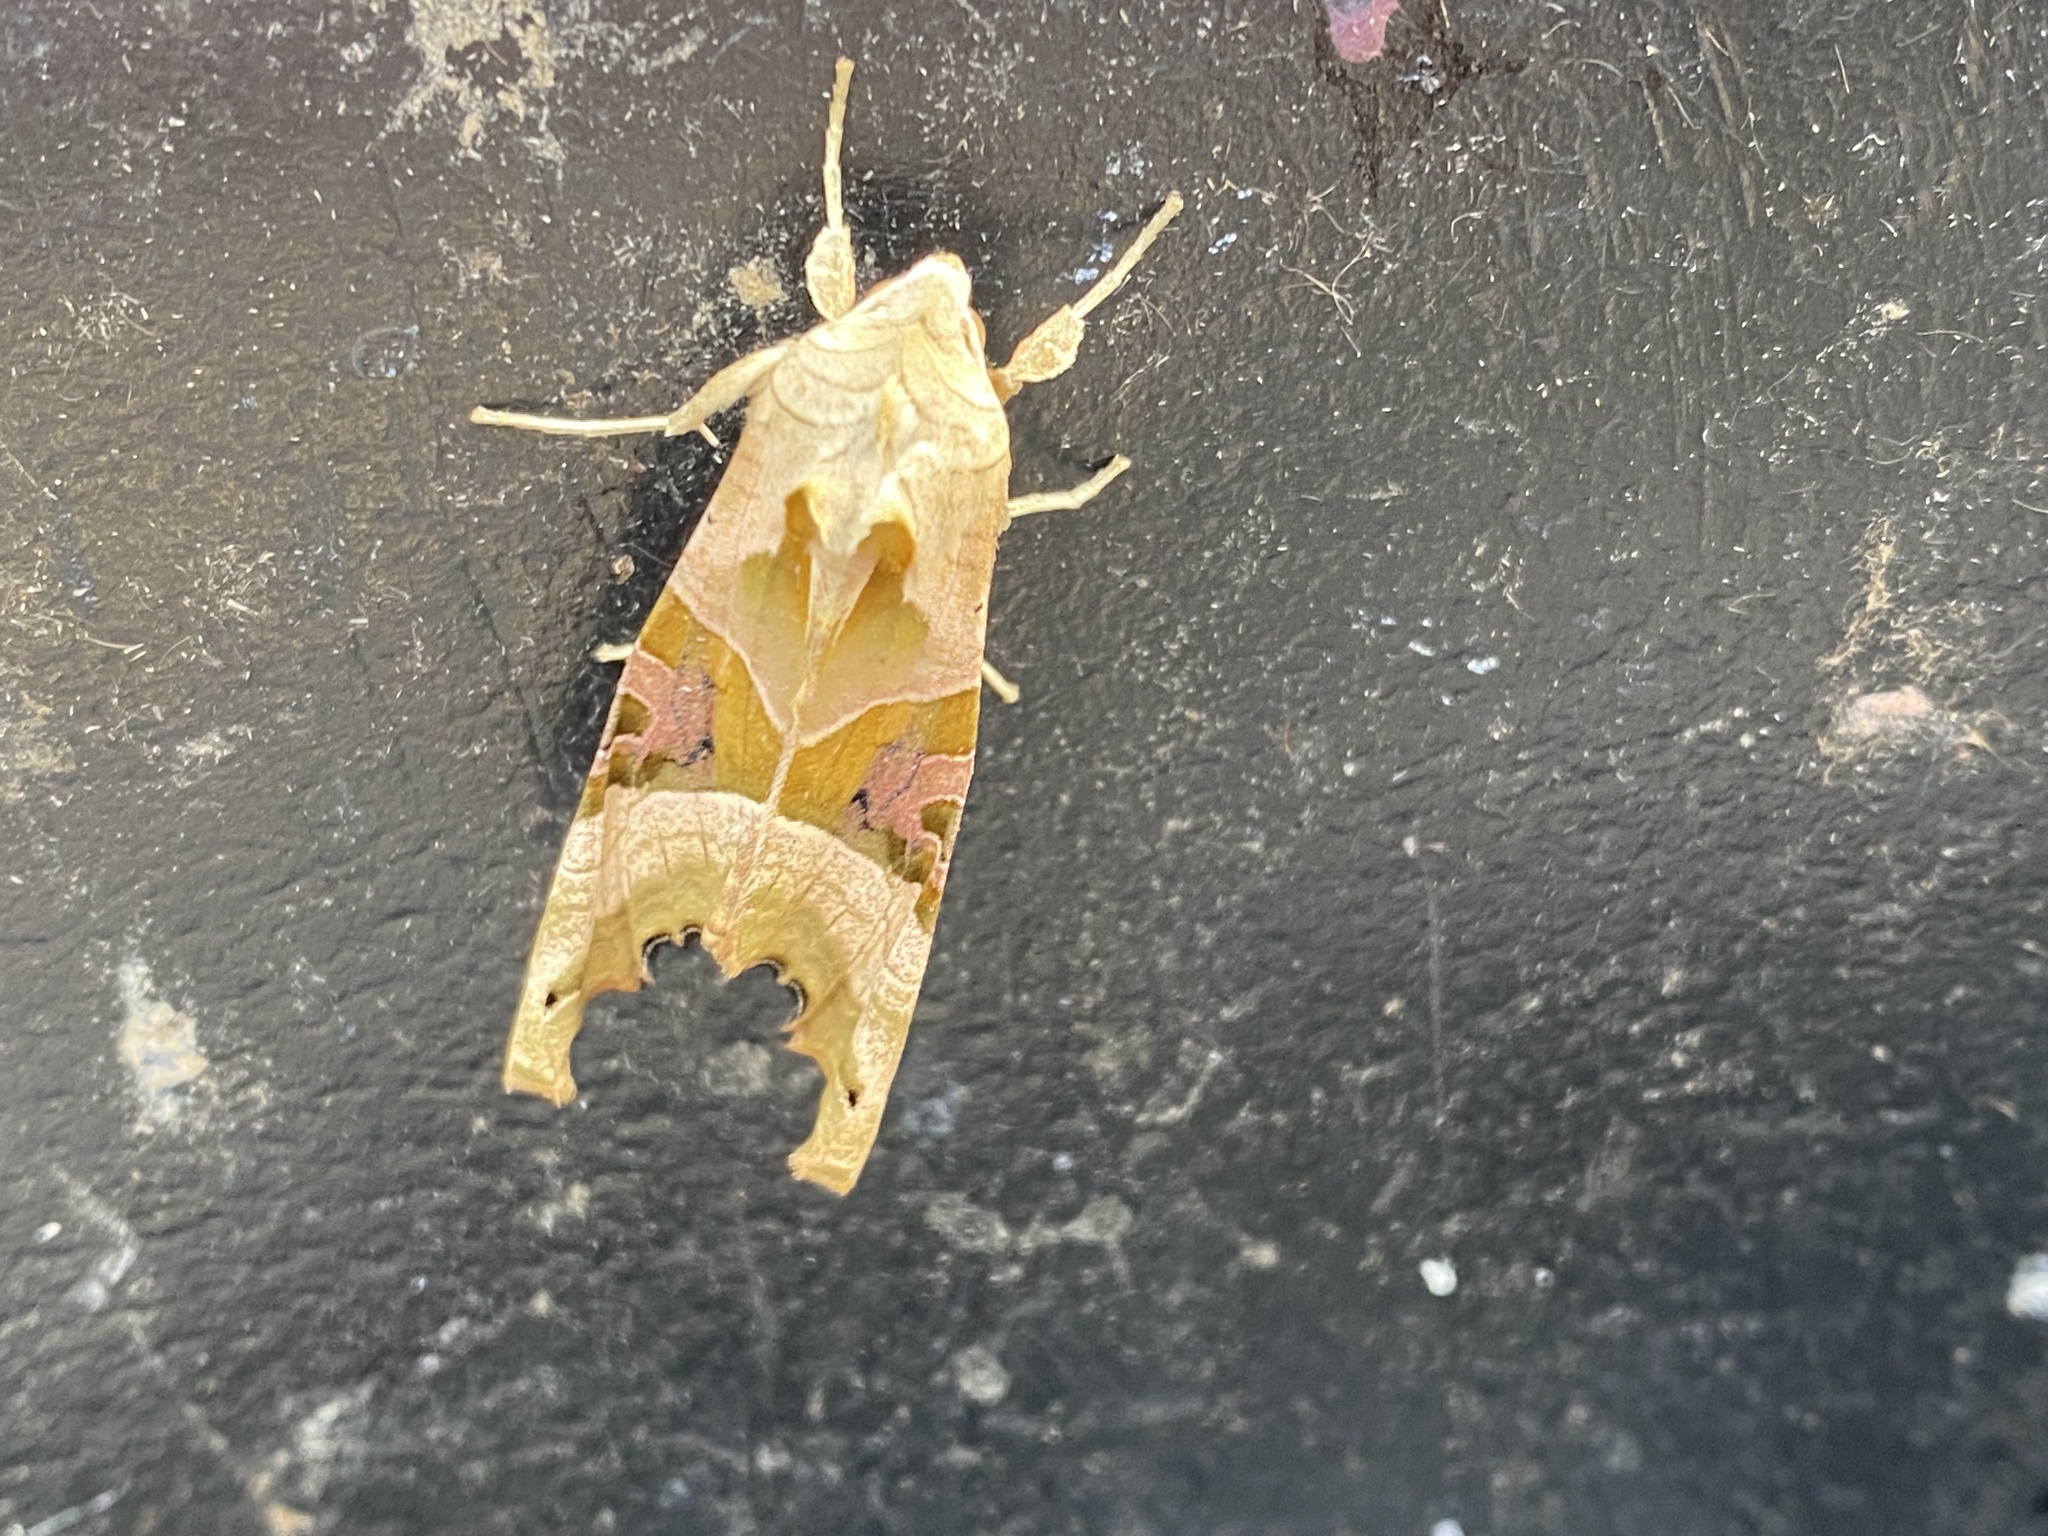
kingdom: Animalia
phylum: Arthropoda
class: Insecta
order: Lepidoptera
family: Noctuidae
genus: Phlogophora
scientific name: Phlogophora meticulosa
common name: Angle shades
